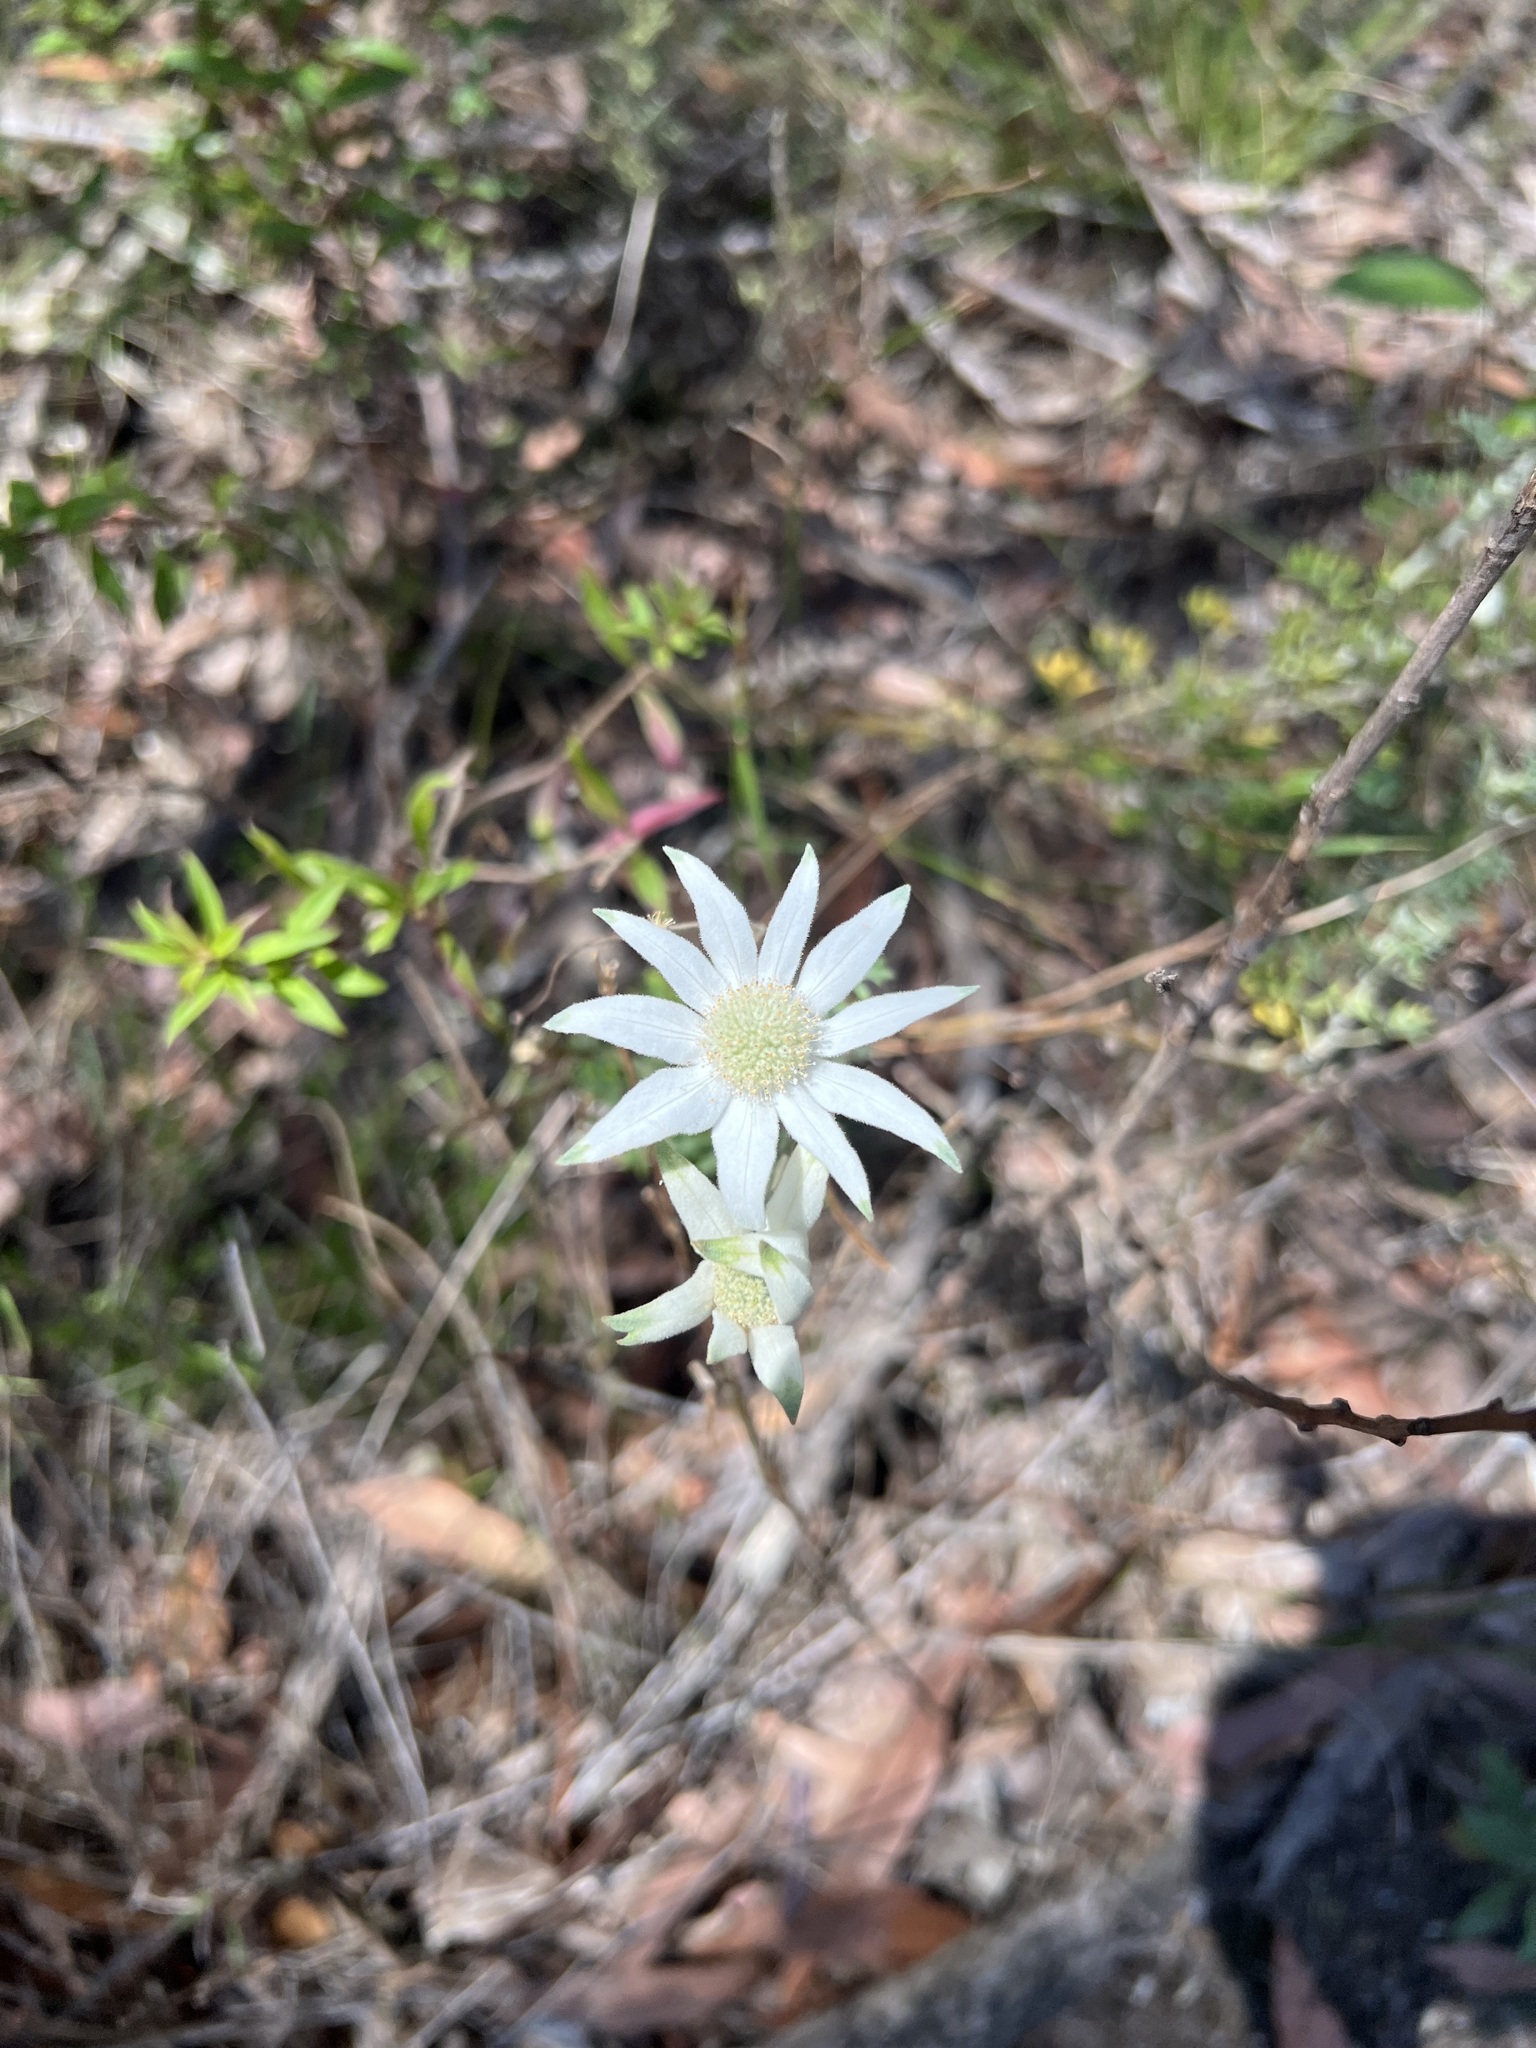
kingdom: Plantae
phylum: Tracheophyta
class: Magnoliopsida
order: Apiales
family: Apiaceae
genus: Actinotus
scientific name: Actinotus helianthi
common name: Flannel-flower
